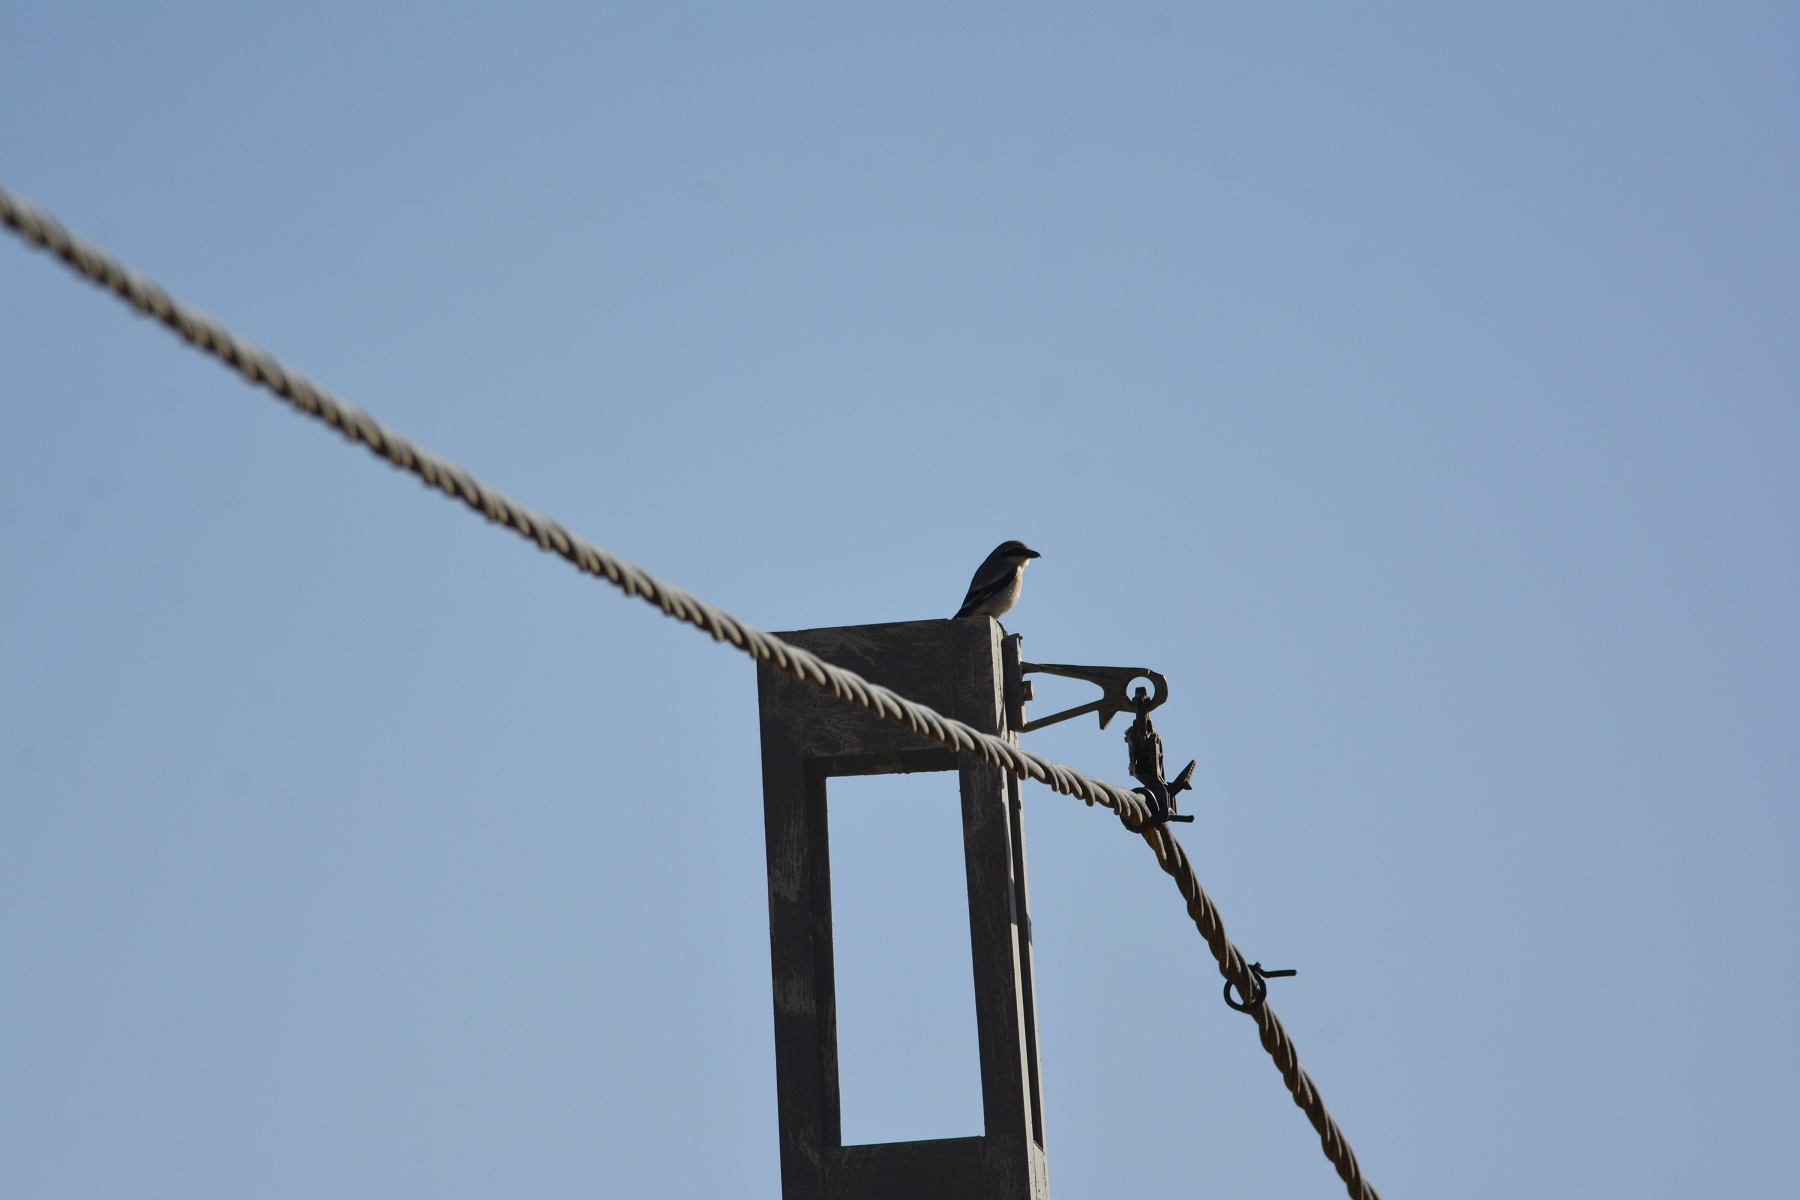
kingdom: Animalia
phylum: Chordata
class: Aves
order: Passeriformes
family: Laniidae
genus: Lanius
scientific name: Lanius excubitor
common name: Great grey shrike
